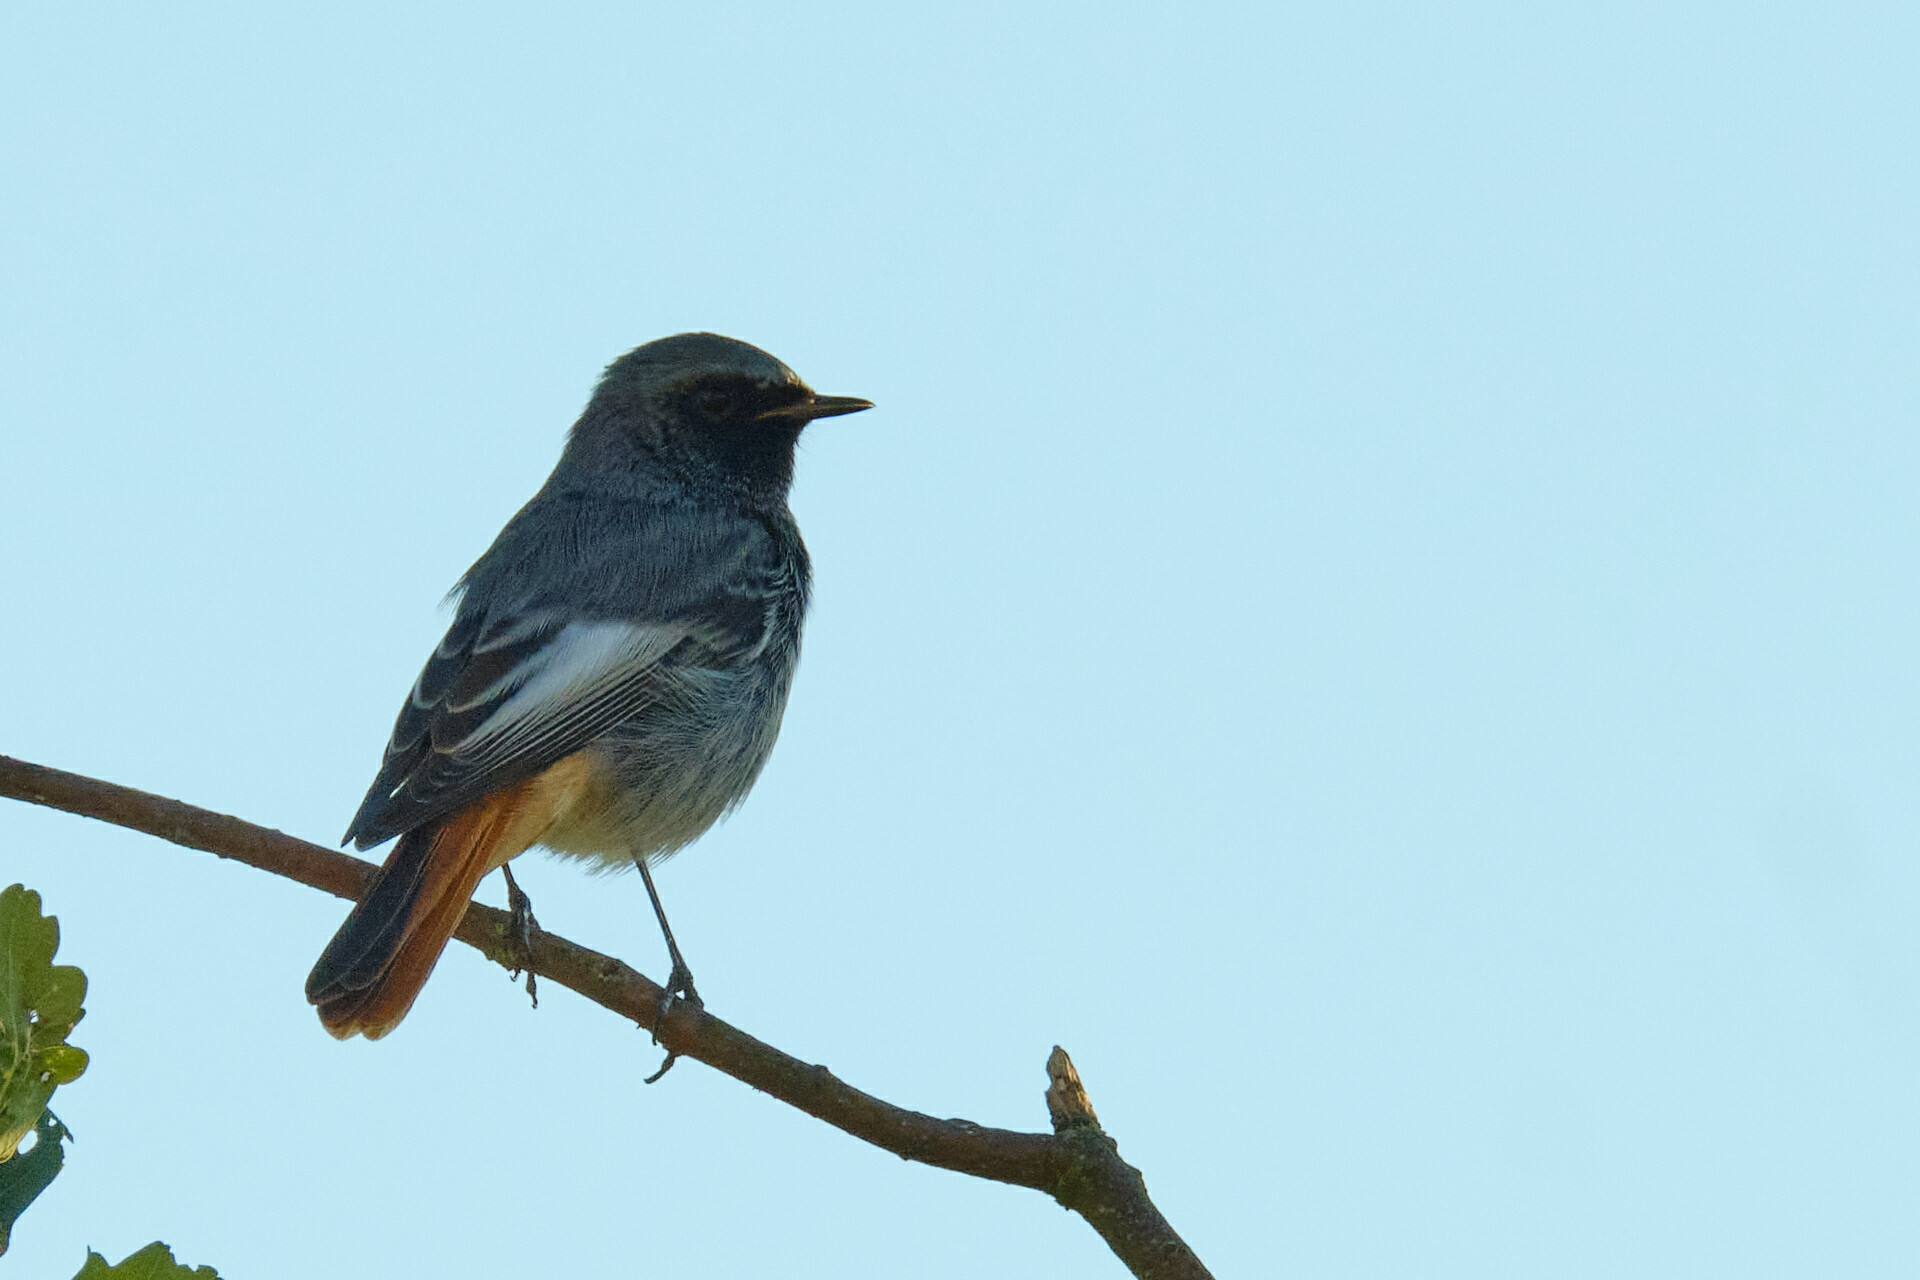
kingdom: Animalia
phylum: Chordata
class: Aves
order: Passeriformes
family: Muscicapidae
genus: Phoenicurus
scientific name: Phoenicurus ochruros
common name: Black redstart
